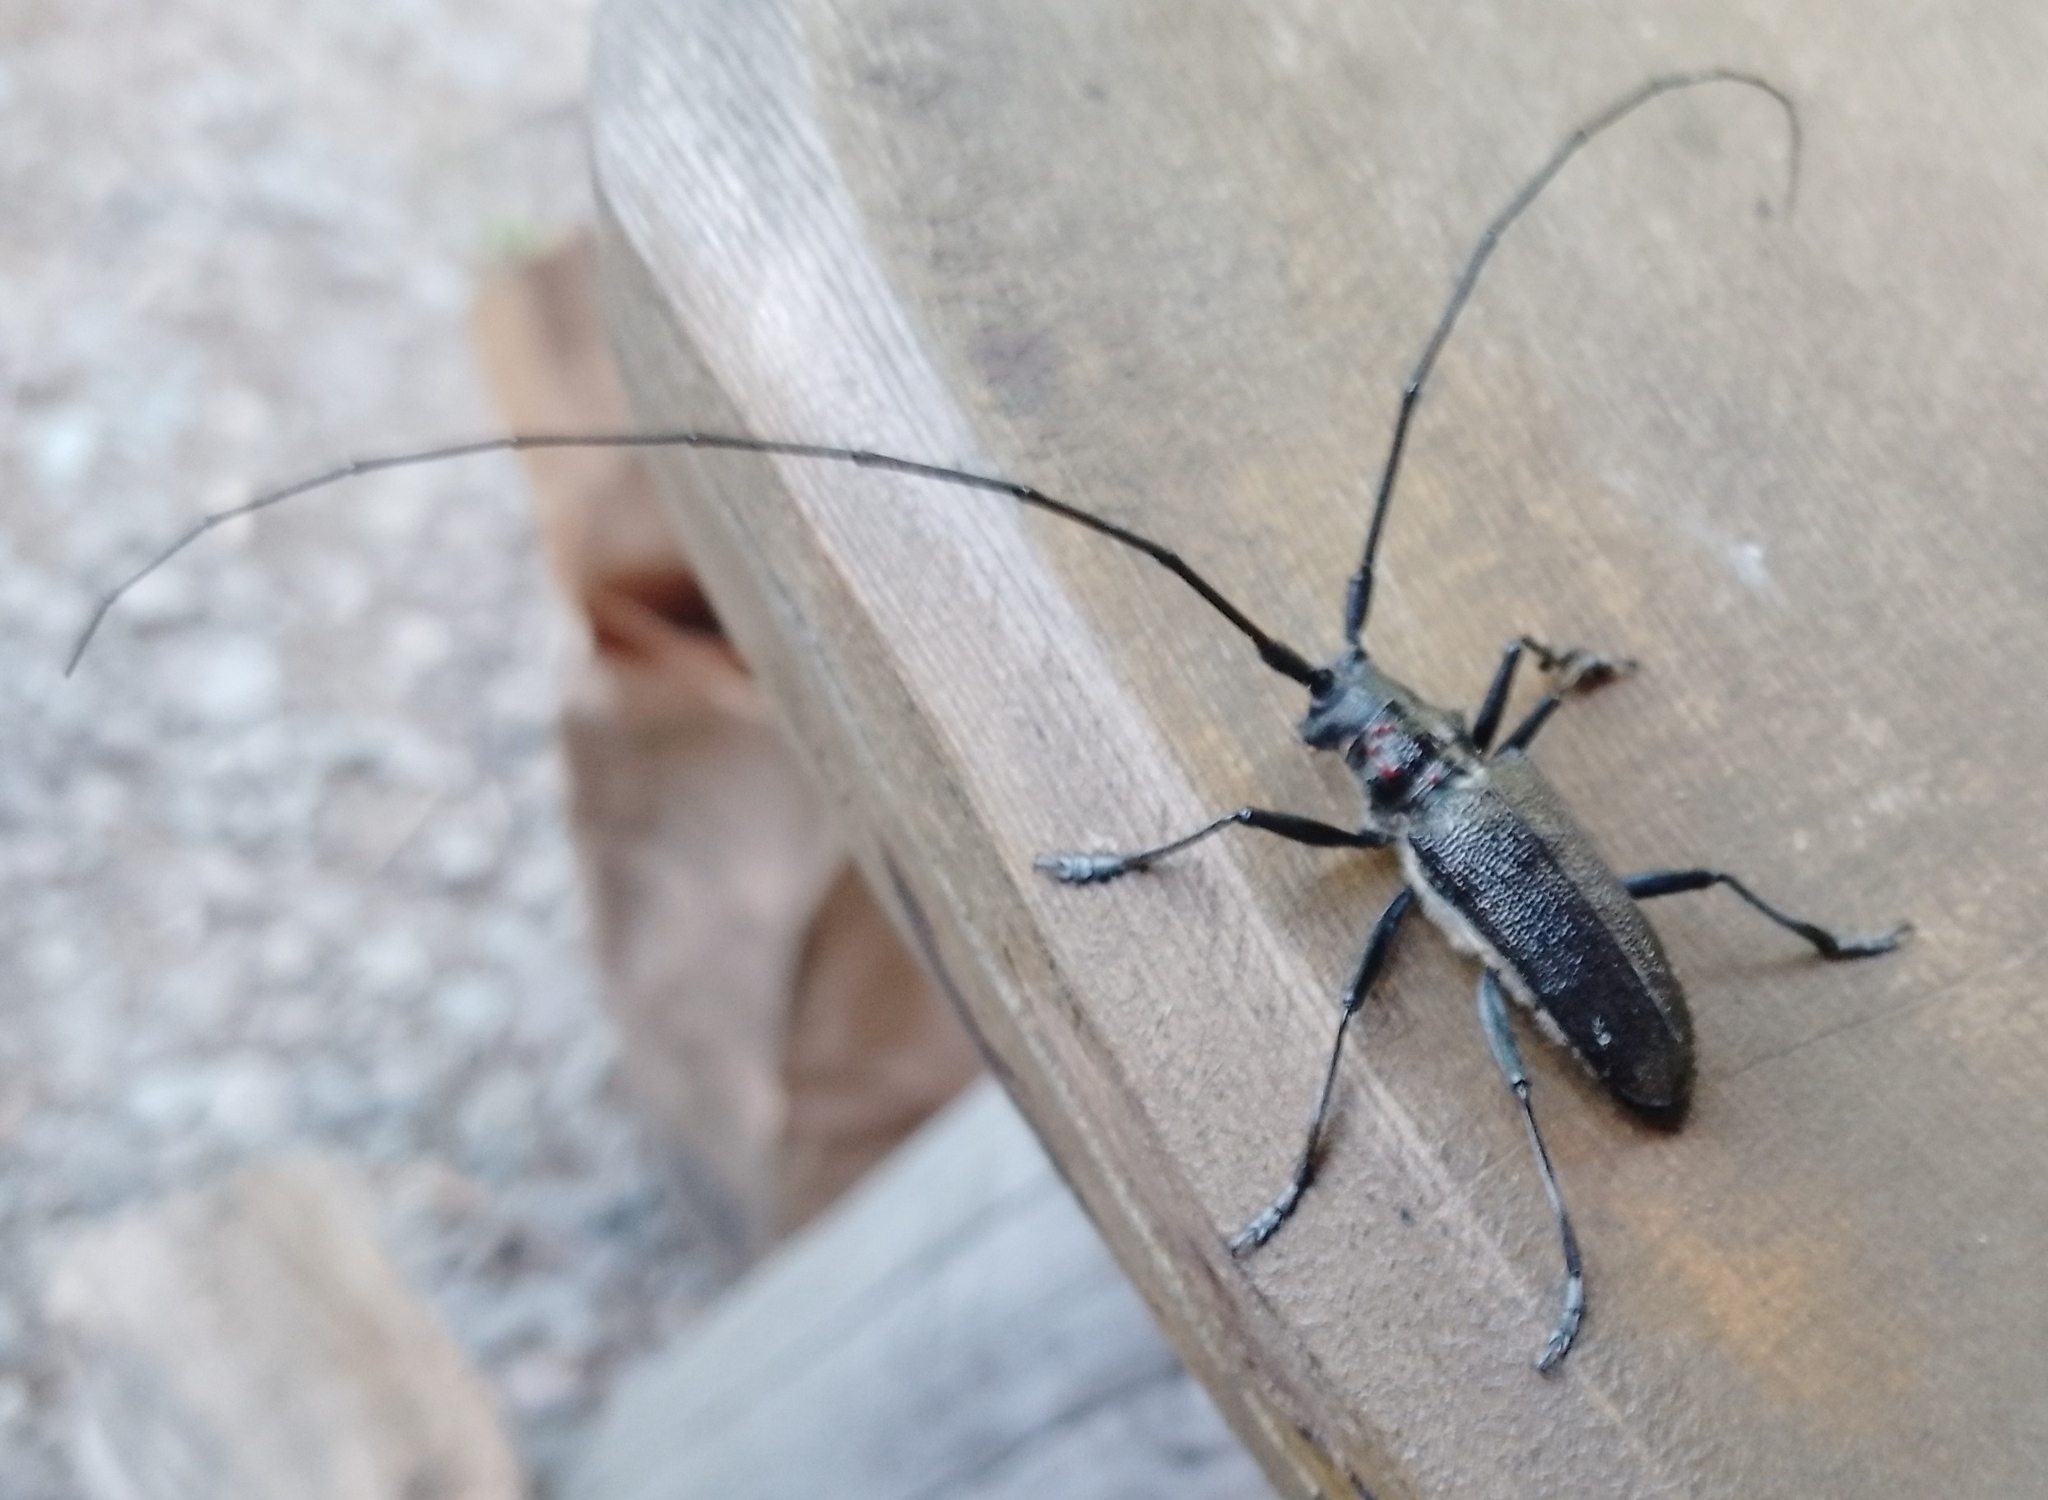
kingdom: Animalia
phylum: Arthropoda
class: Insecta
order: Coleoptera
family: Cerambycidae
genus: Monochamus
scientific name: Monochamus sutor
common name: Pine sawyer
